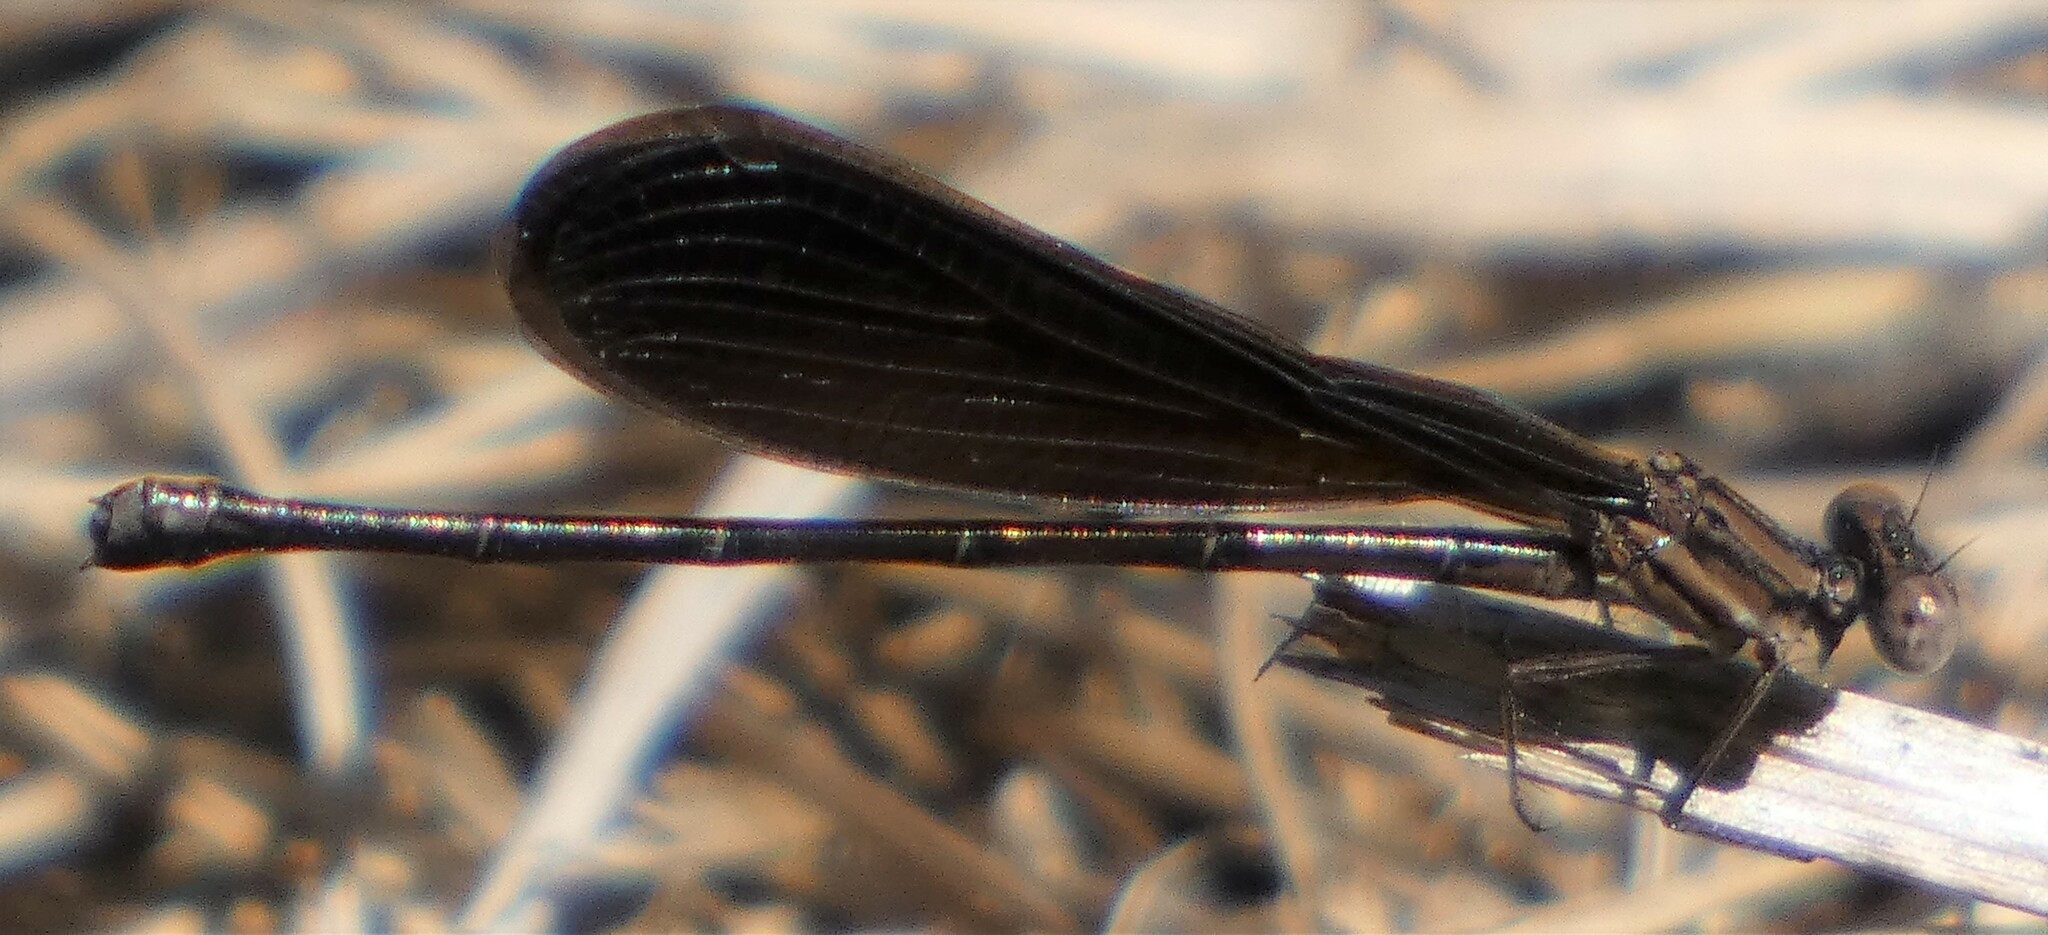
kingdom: Animalia
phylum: Arthropoda
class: Insecta
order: Odonata
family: Coenagrionidae
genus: Argia
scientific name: Argia fumipennis
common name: Variable dancer
